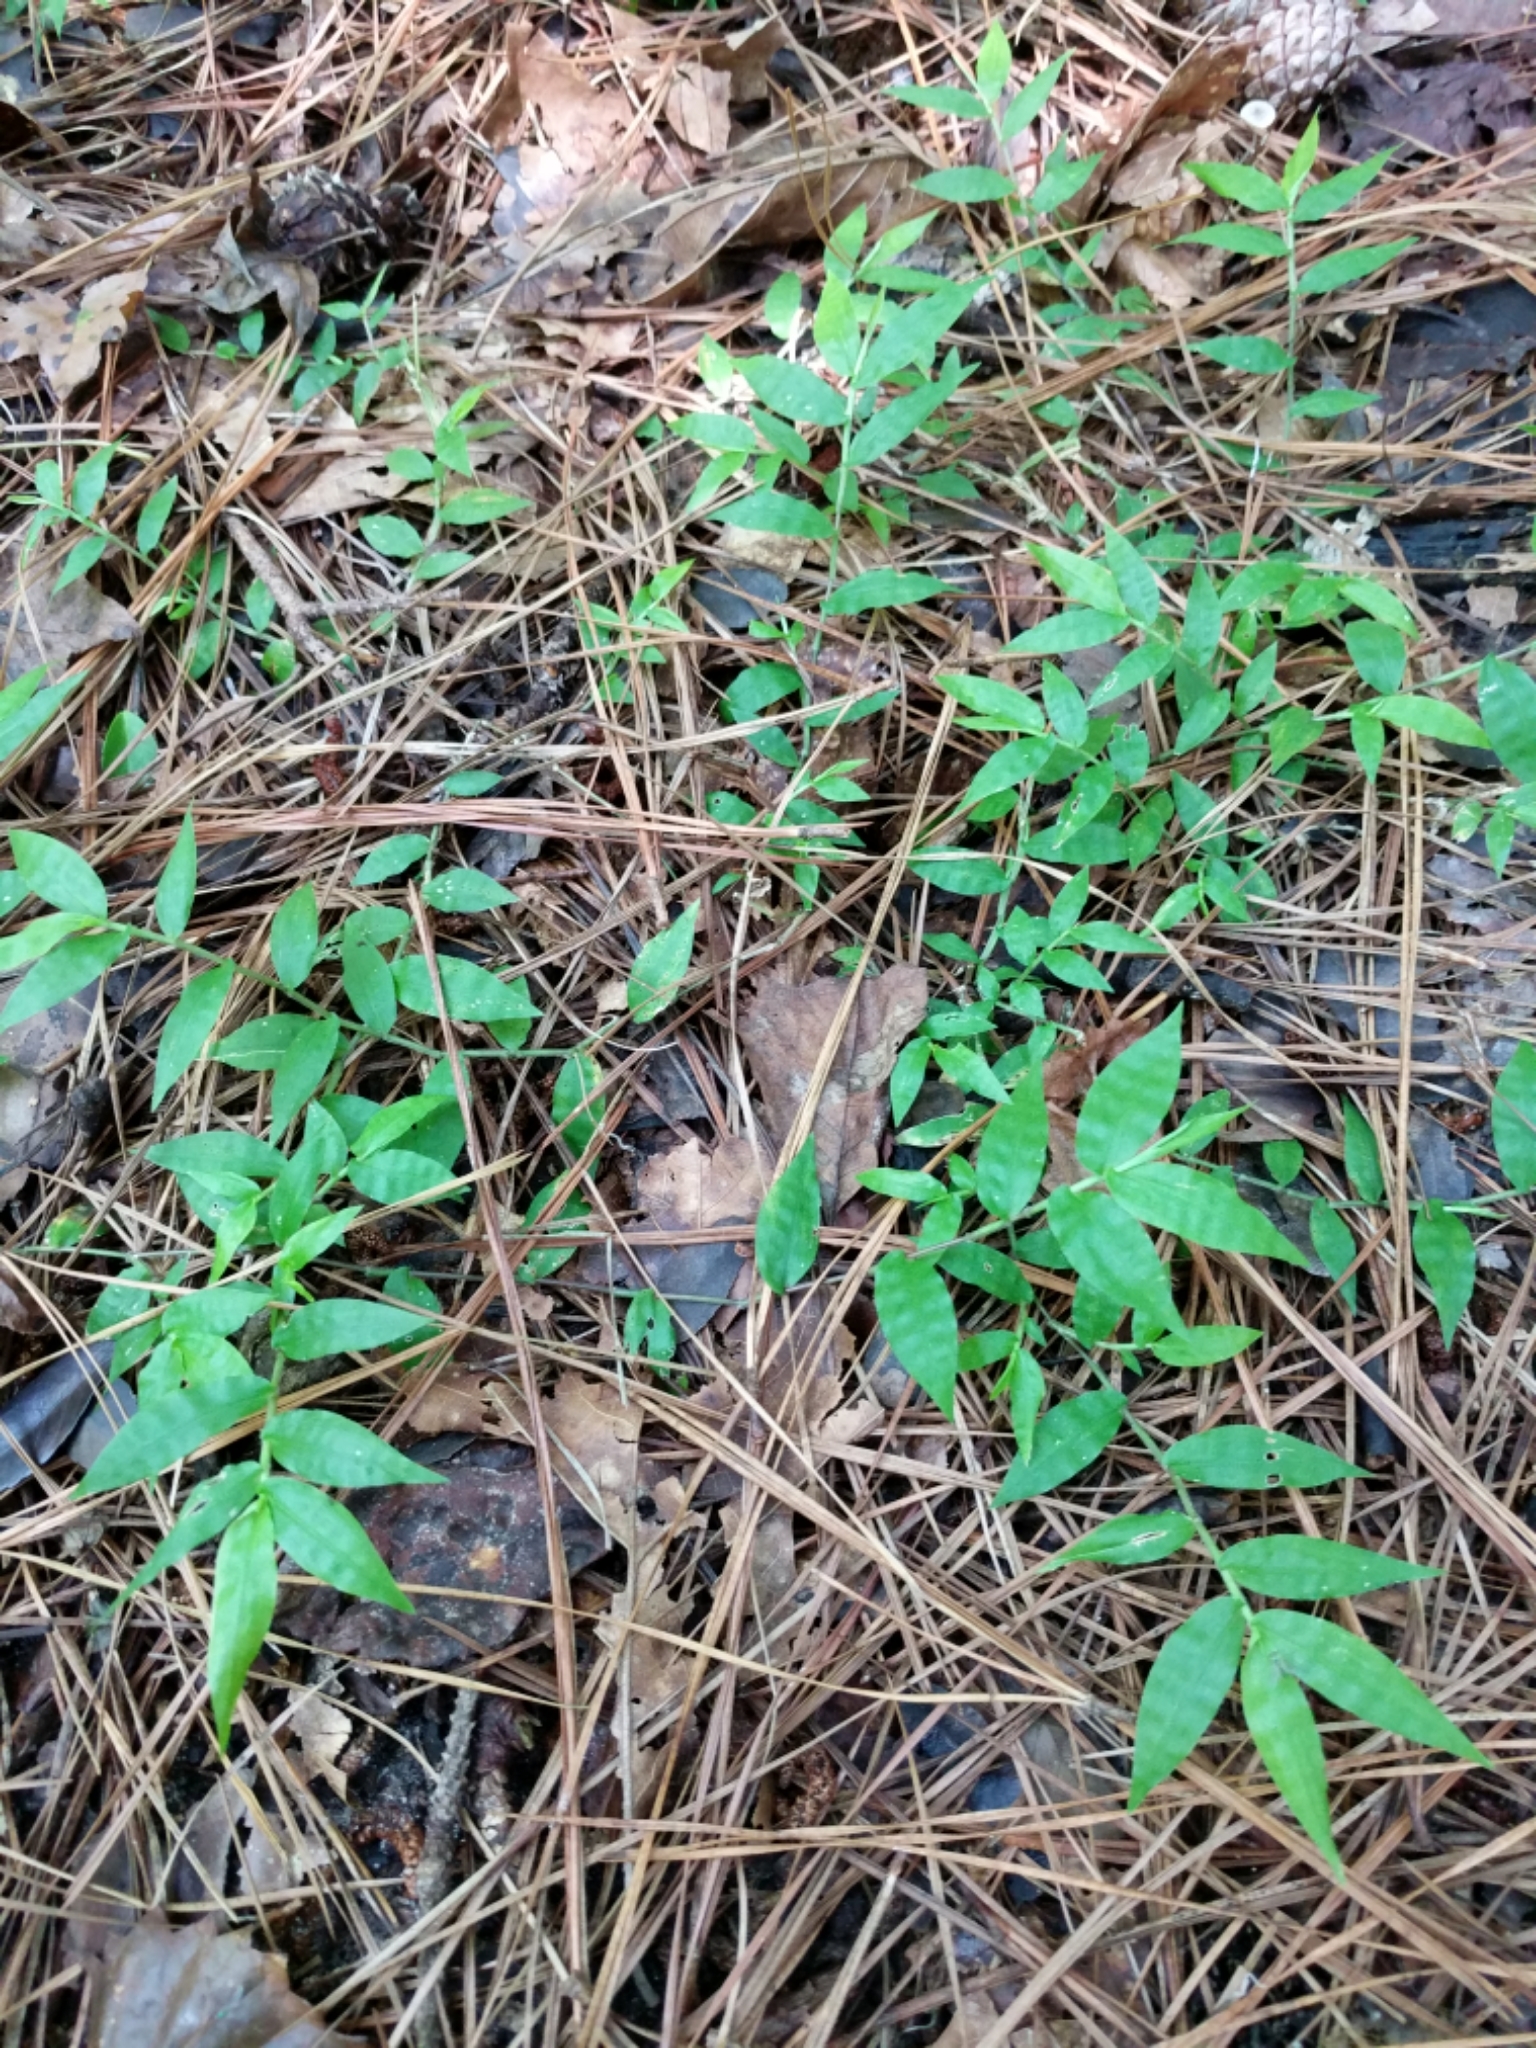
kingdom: Plantae
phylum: Tracheophyta
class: Liliopsida
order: Poales
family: Poaceae
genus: Oplismenus
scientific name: Oplismenus hirtellus
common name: Basketgrass
